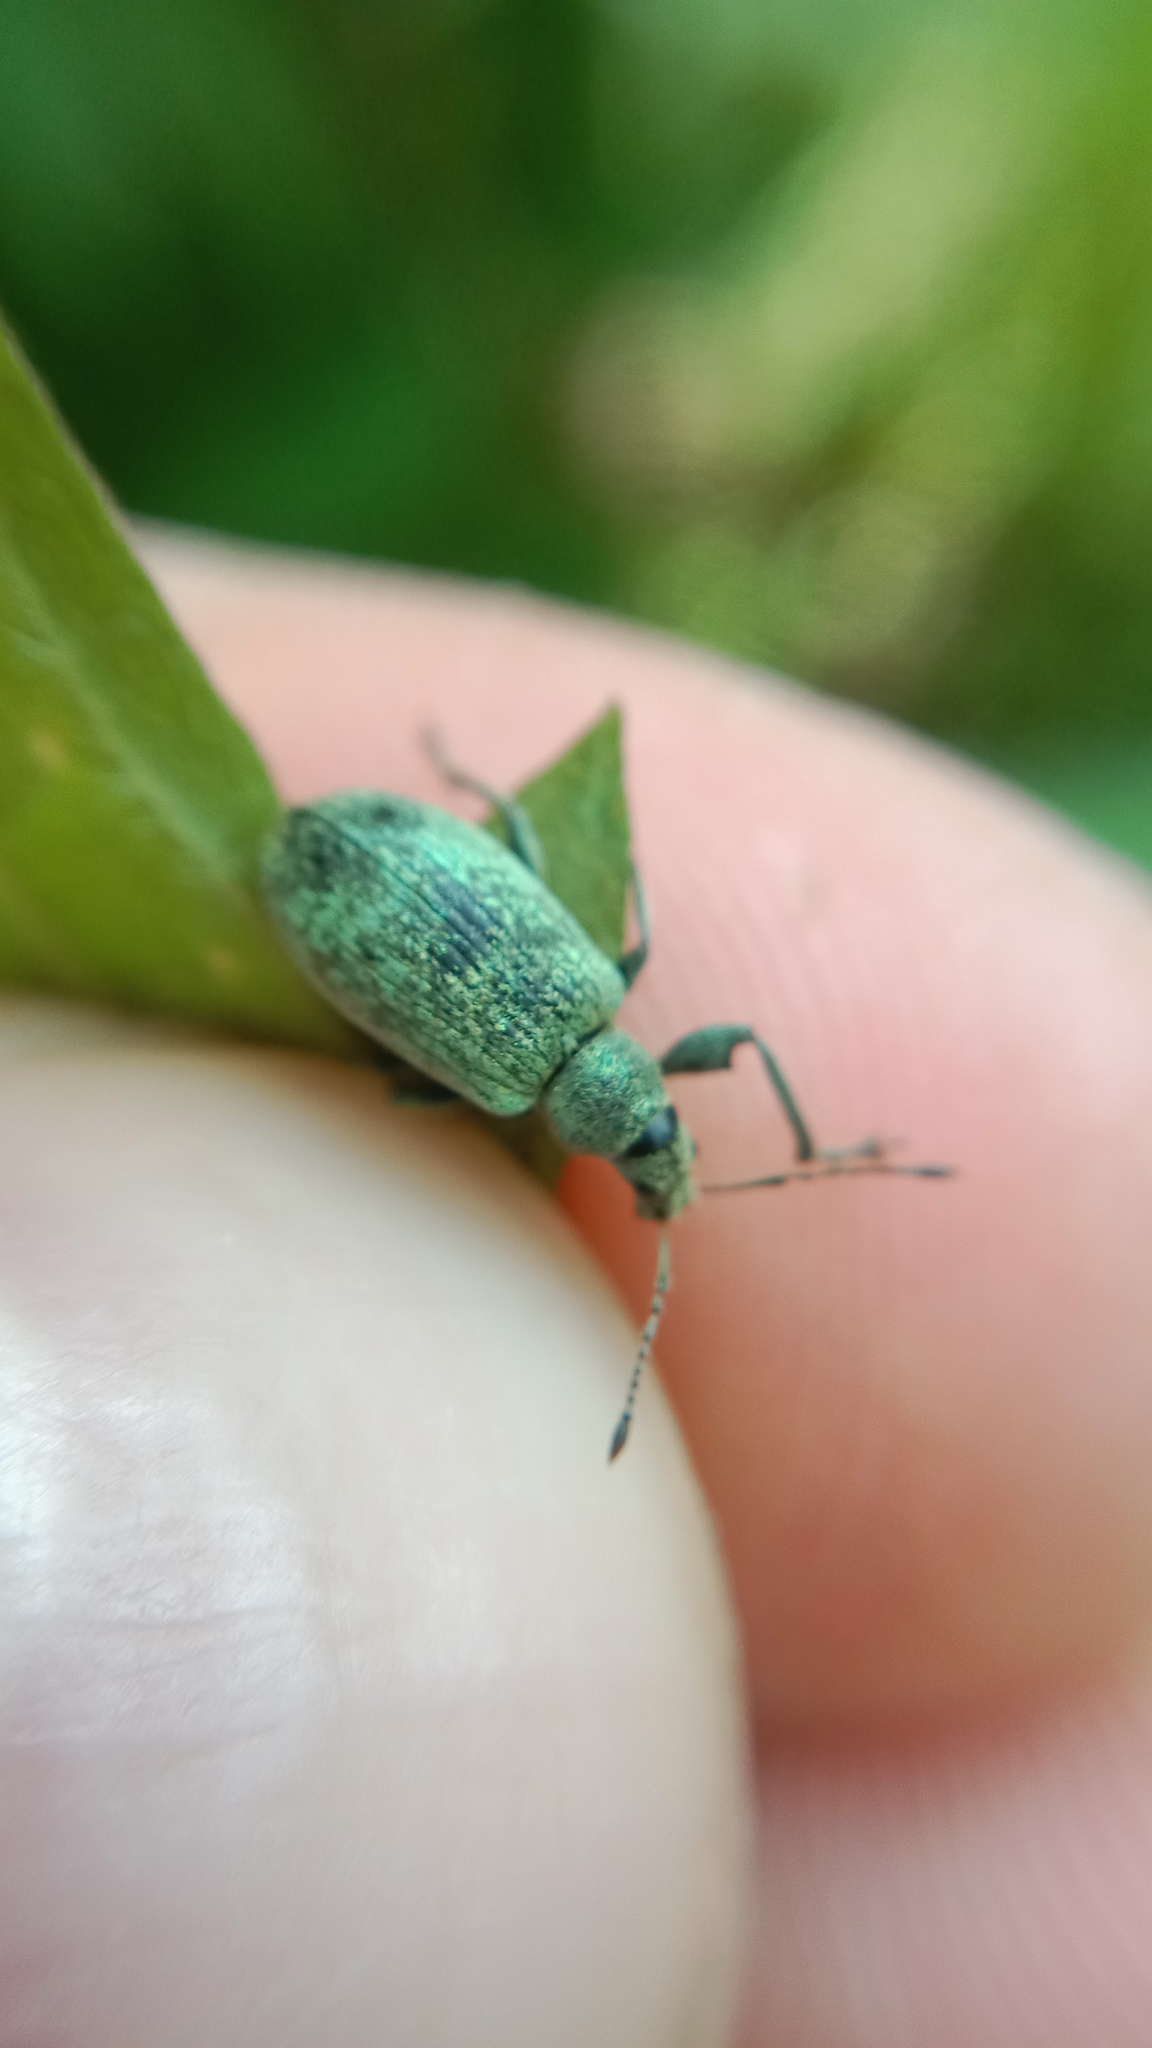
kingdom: Animalia
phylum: Arthropoda
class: Insecta
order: Coleoptera
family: Curculionidae
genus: Phyllobius
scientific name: Phyllobius pomaceus
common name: Green nettle weevil
